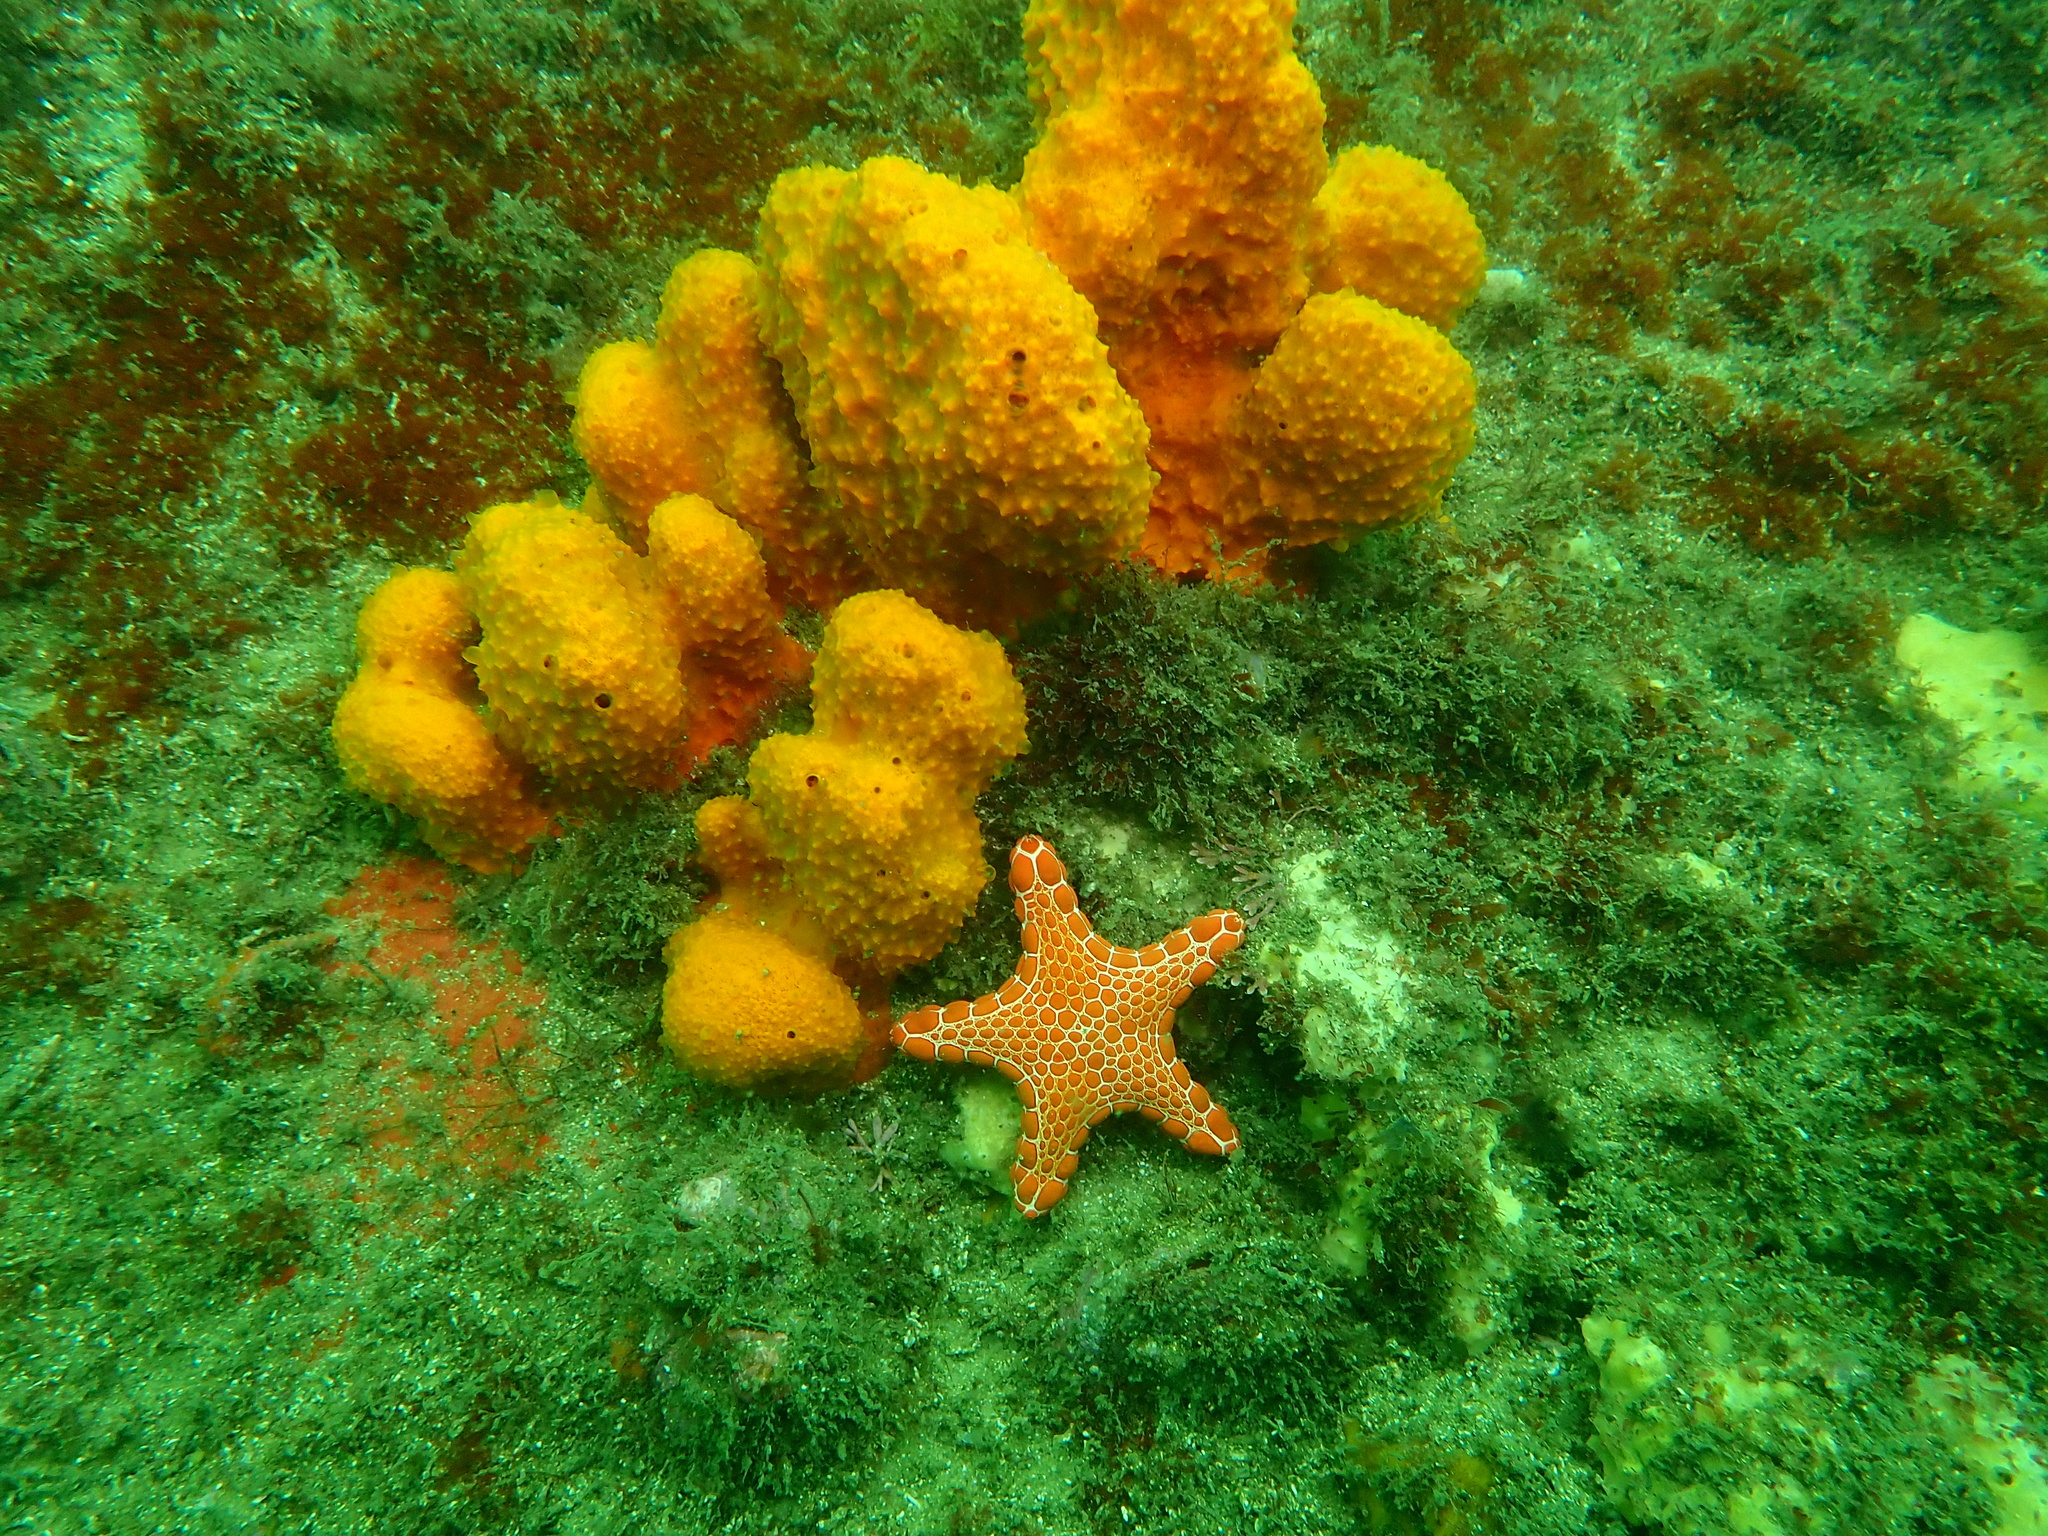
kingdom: Animalia
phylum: Echinodermata
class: Asteroidea
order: Valvatida
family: Goniasteridae
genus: Pentagonaster
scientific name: Pentagonaster duebeni
